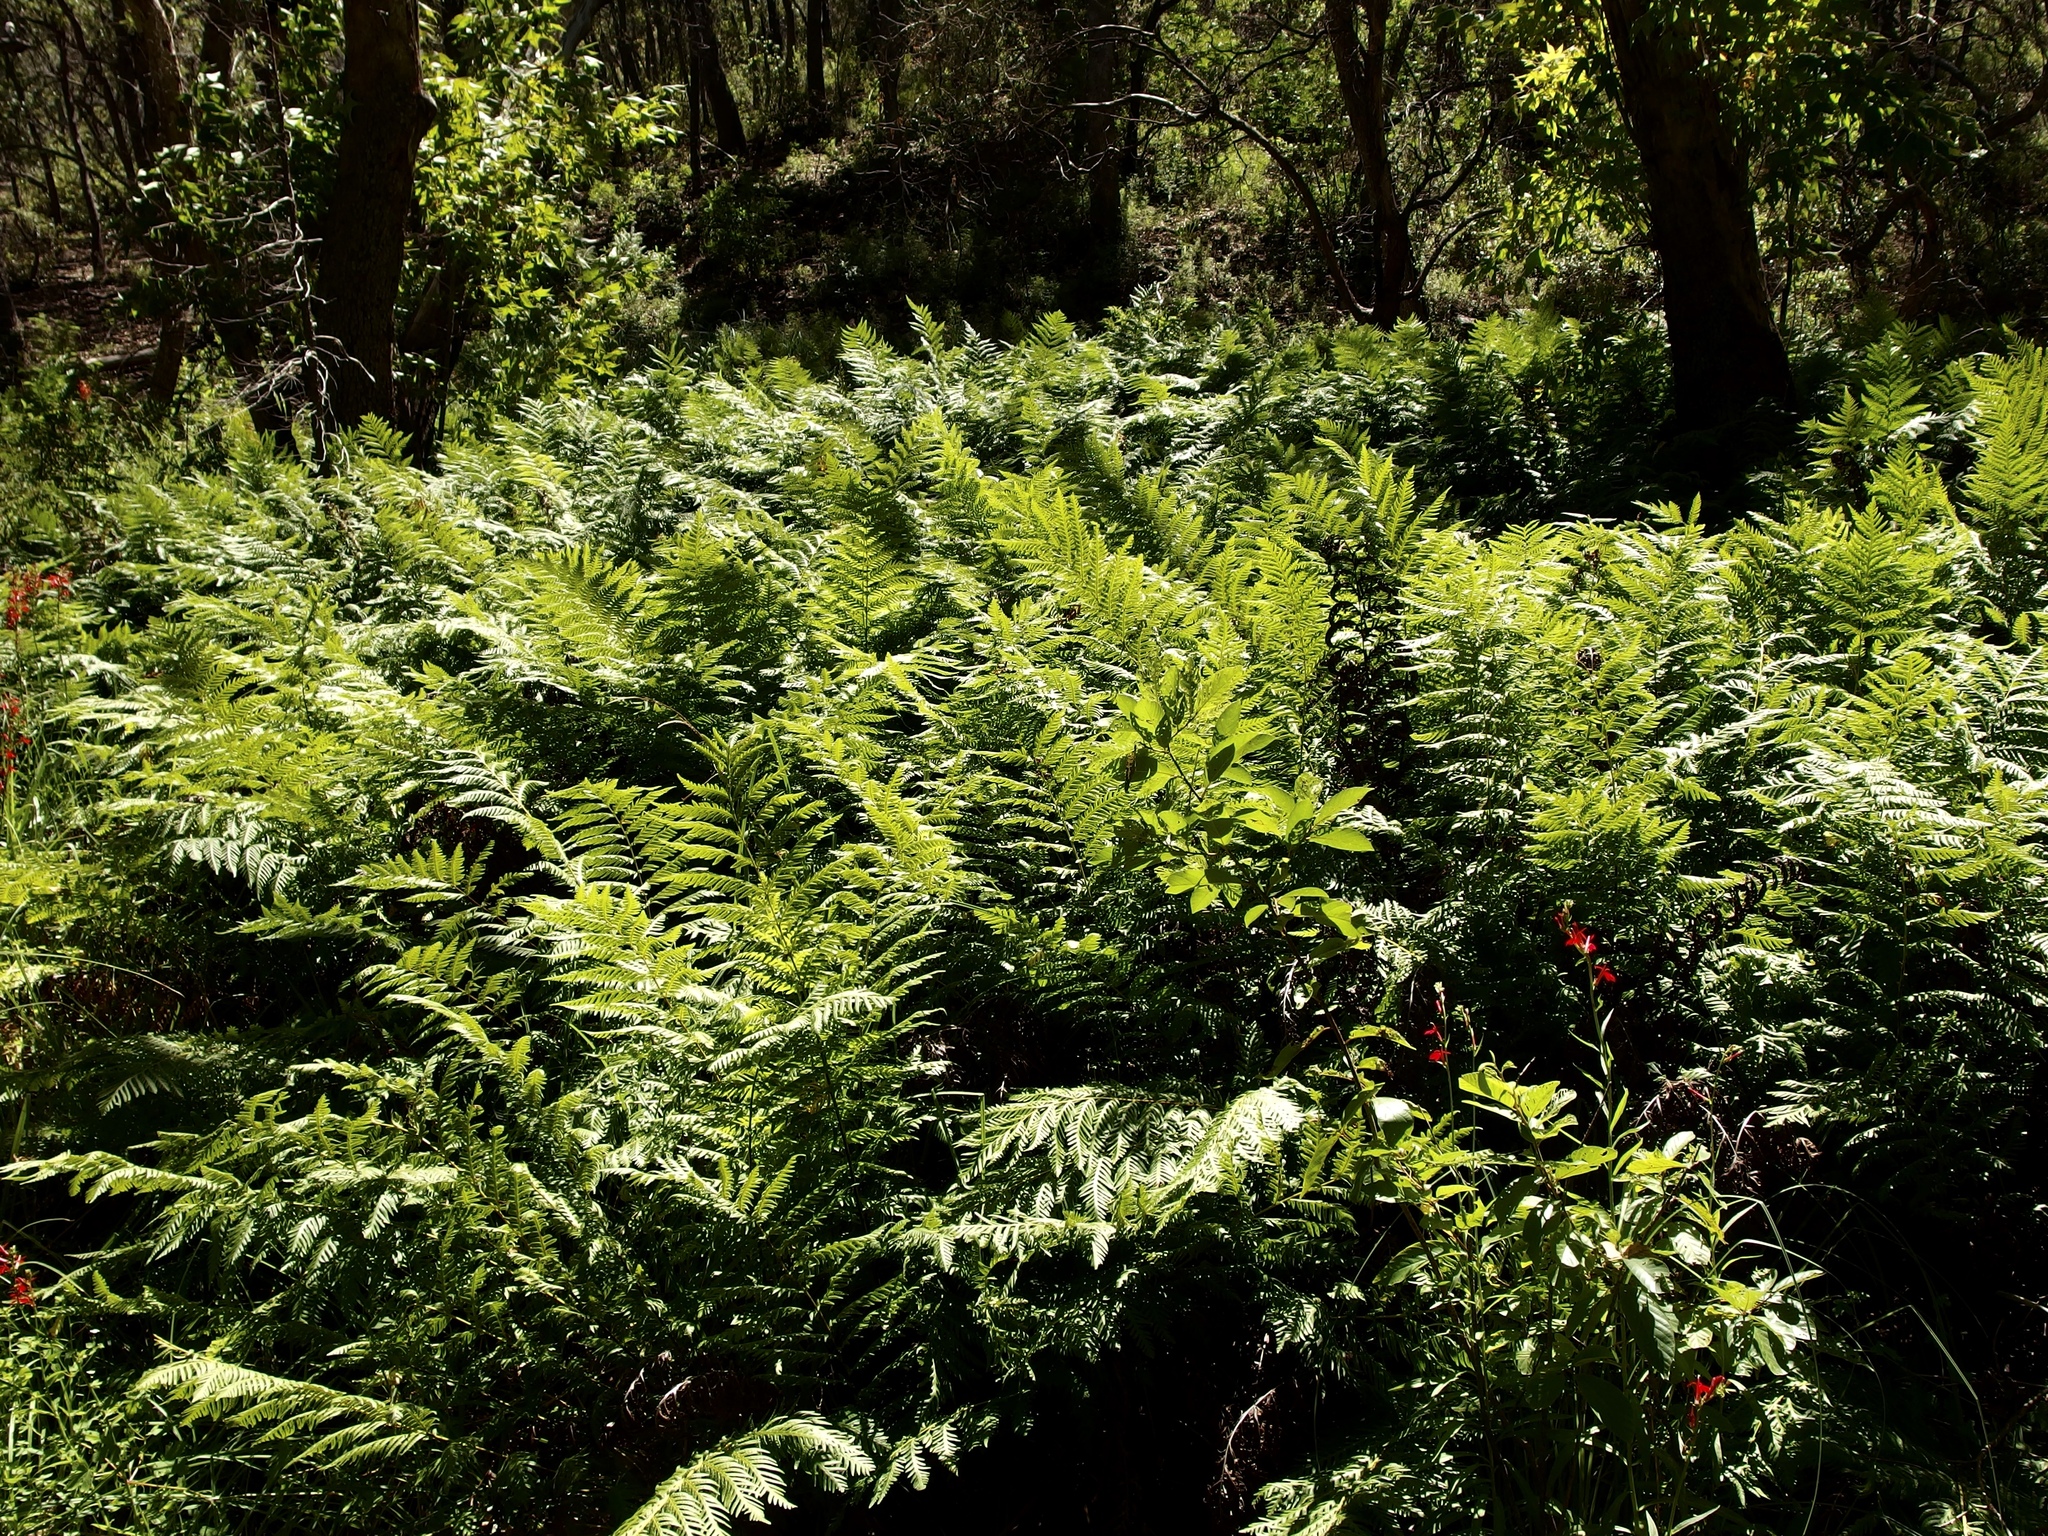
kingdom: Plantae
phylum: Tracheophyta
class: Polypodiopsida
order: Polypodiales
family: Blechnaceae
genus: Woodwardia
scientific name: Woodwardia fimbriata
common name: Giant chain fern
